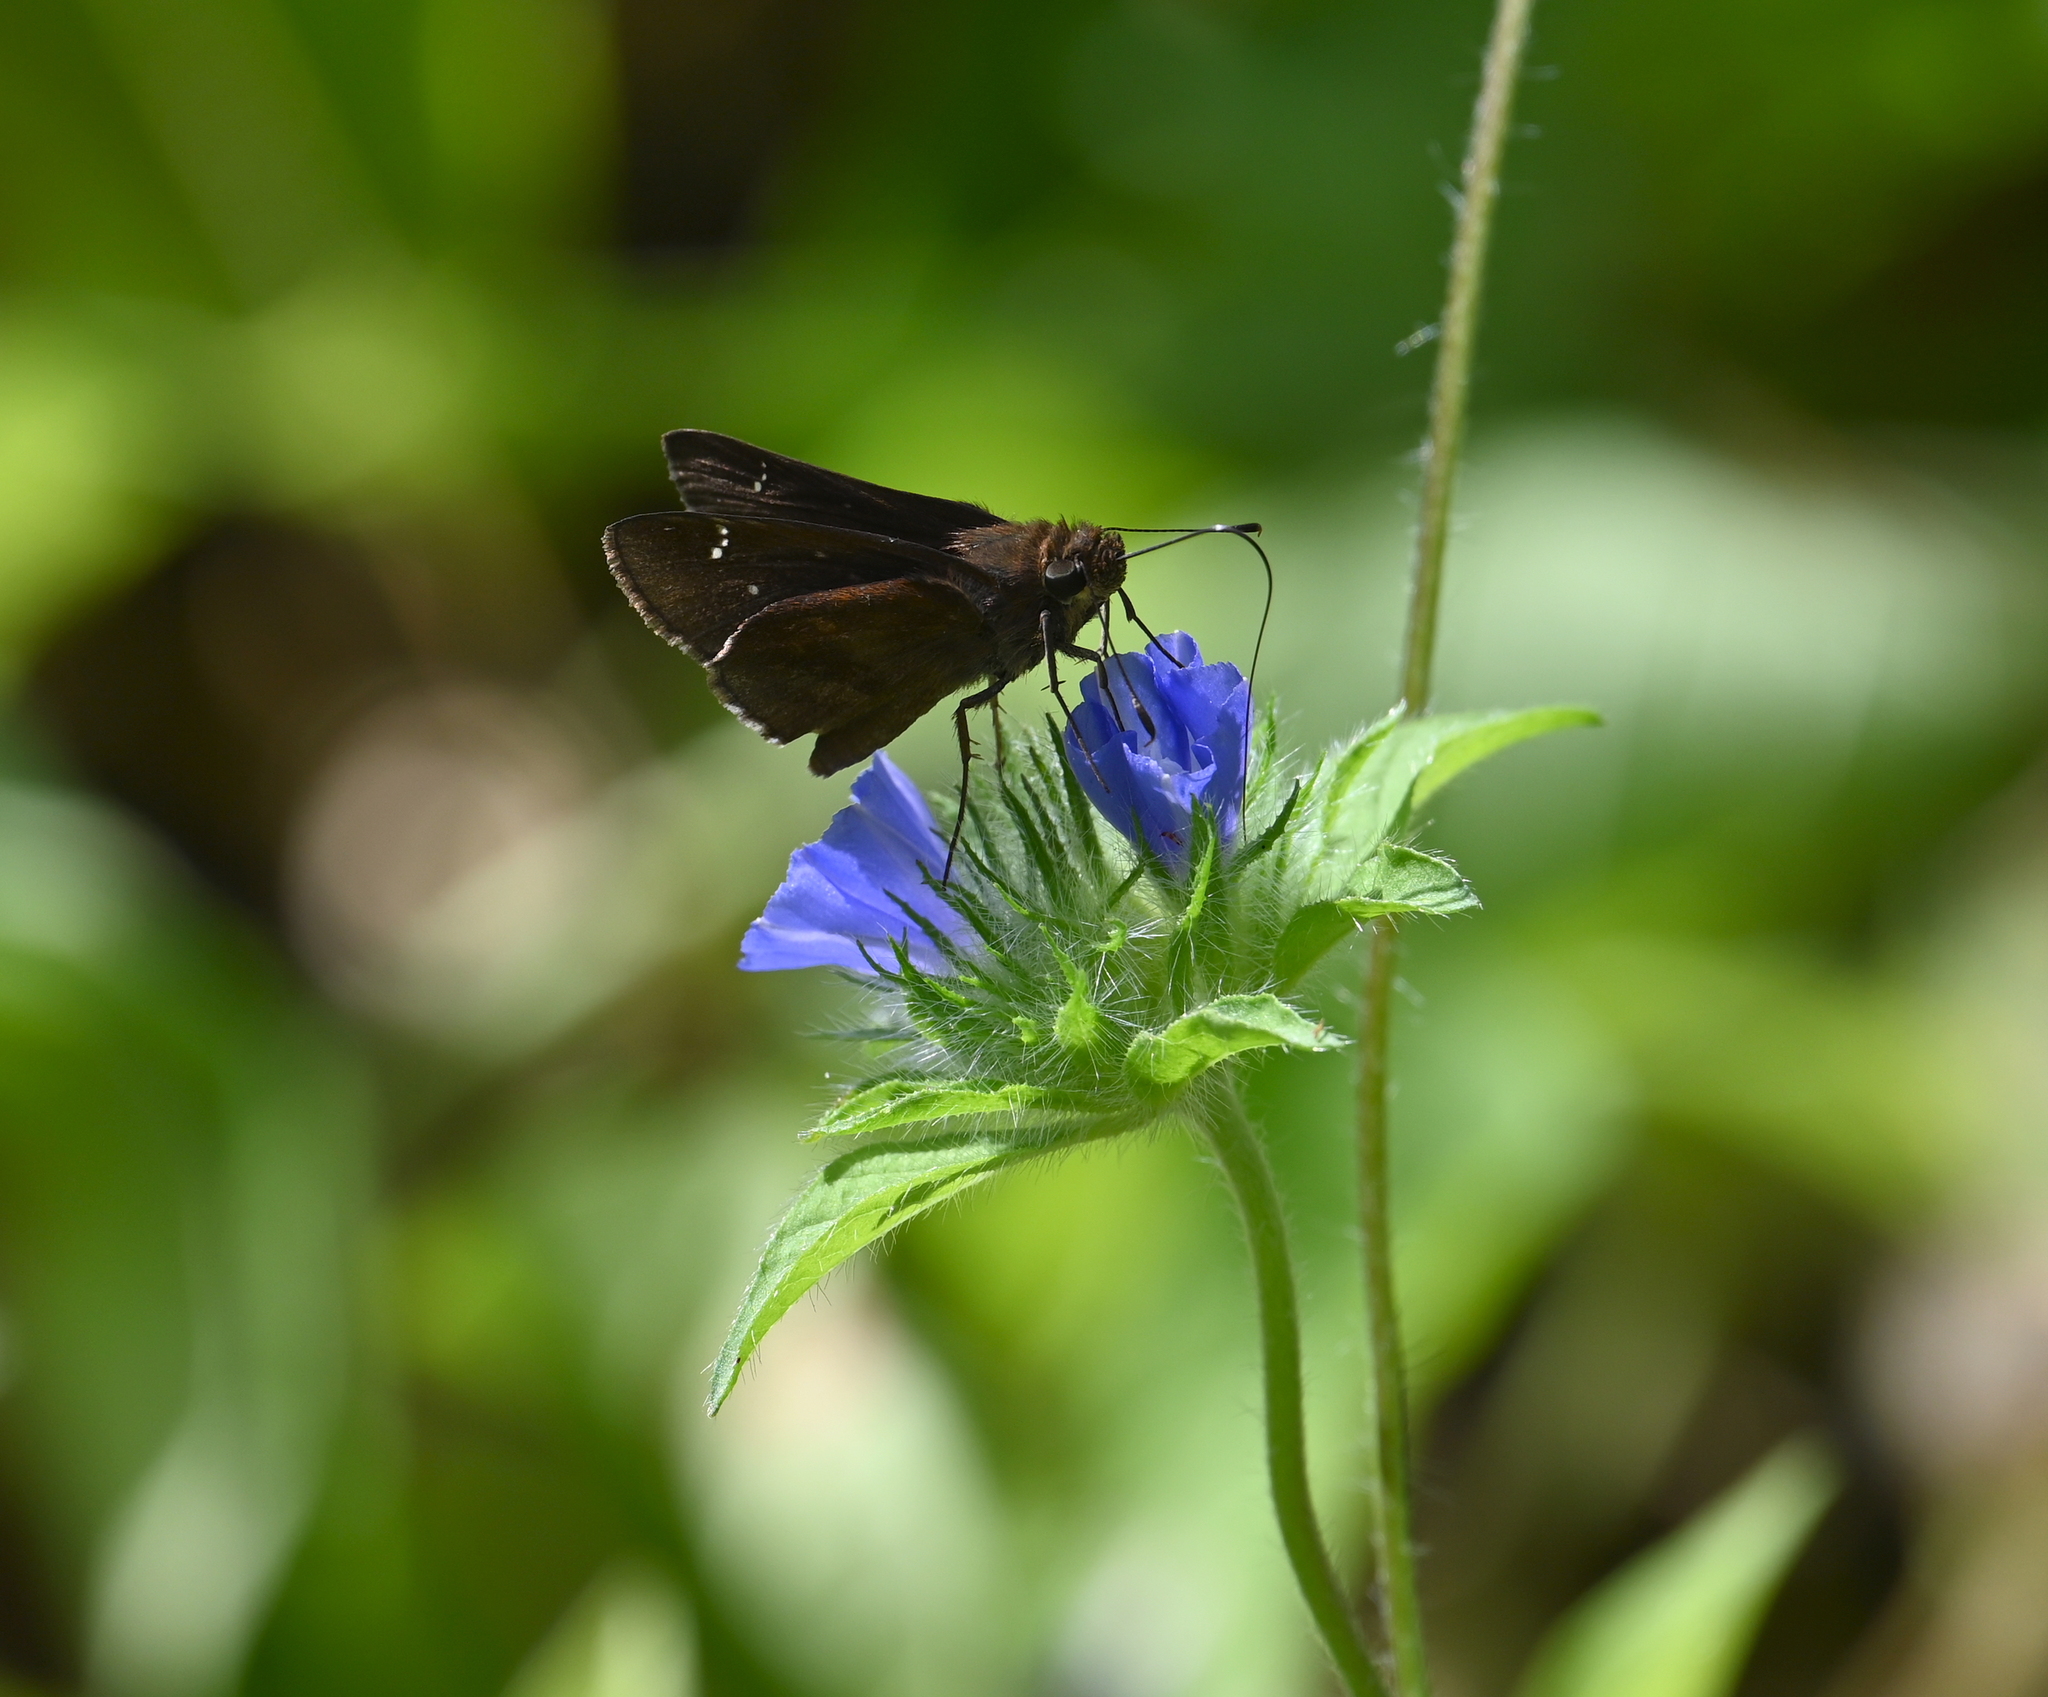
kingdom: Animalia
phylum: Arthropoda
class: Insecta
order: Lepidoptera
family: Hesperiidae
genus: Lerema
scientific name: Lerema accius
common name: Clouded skipper
